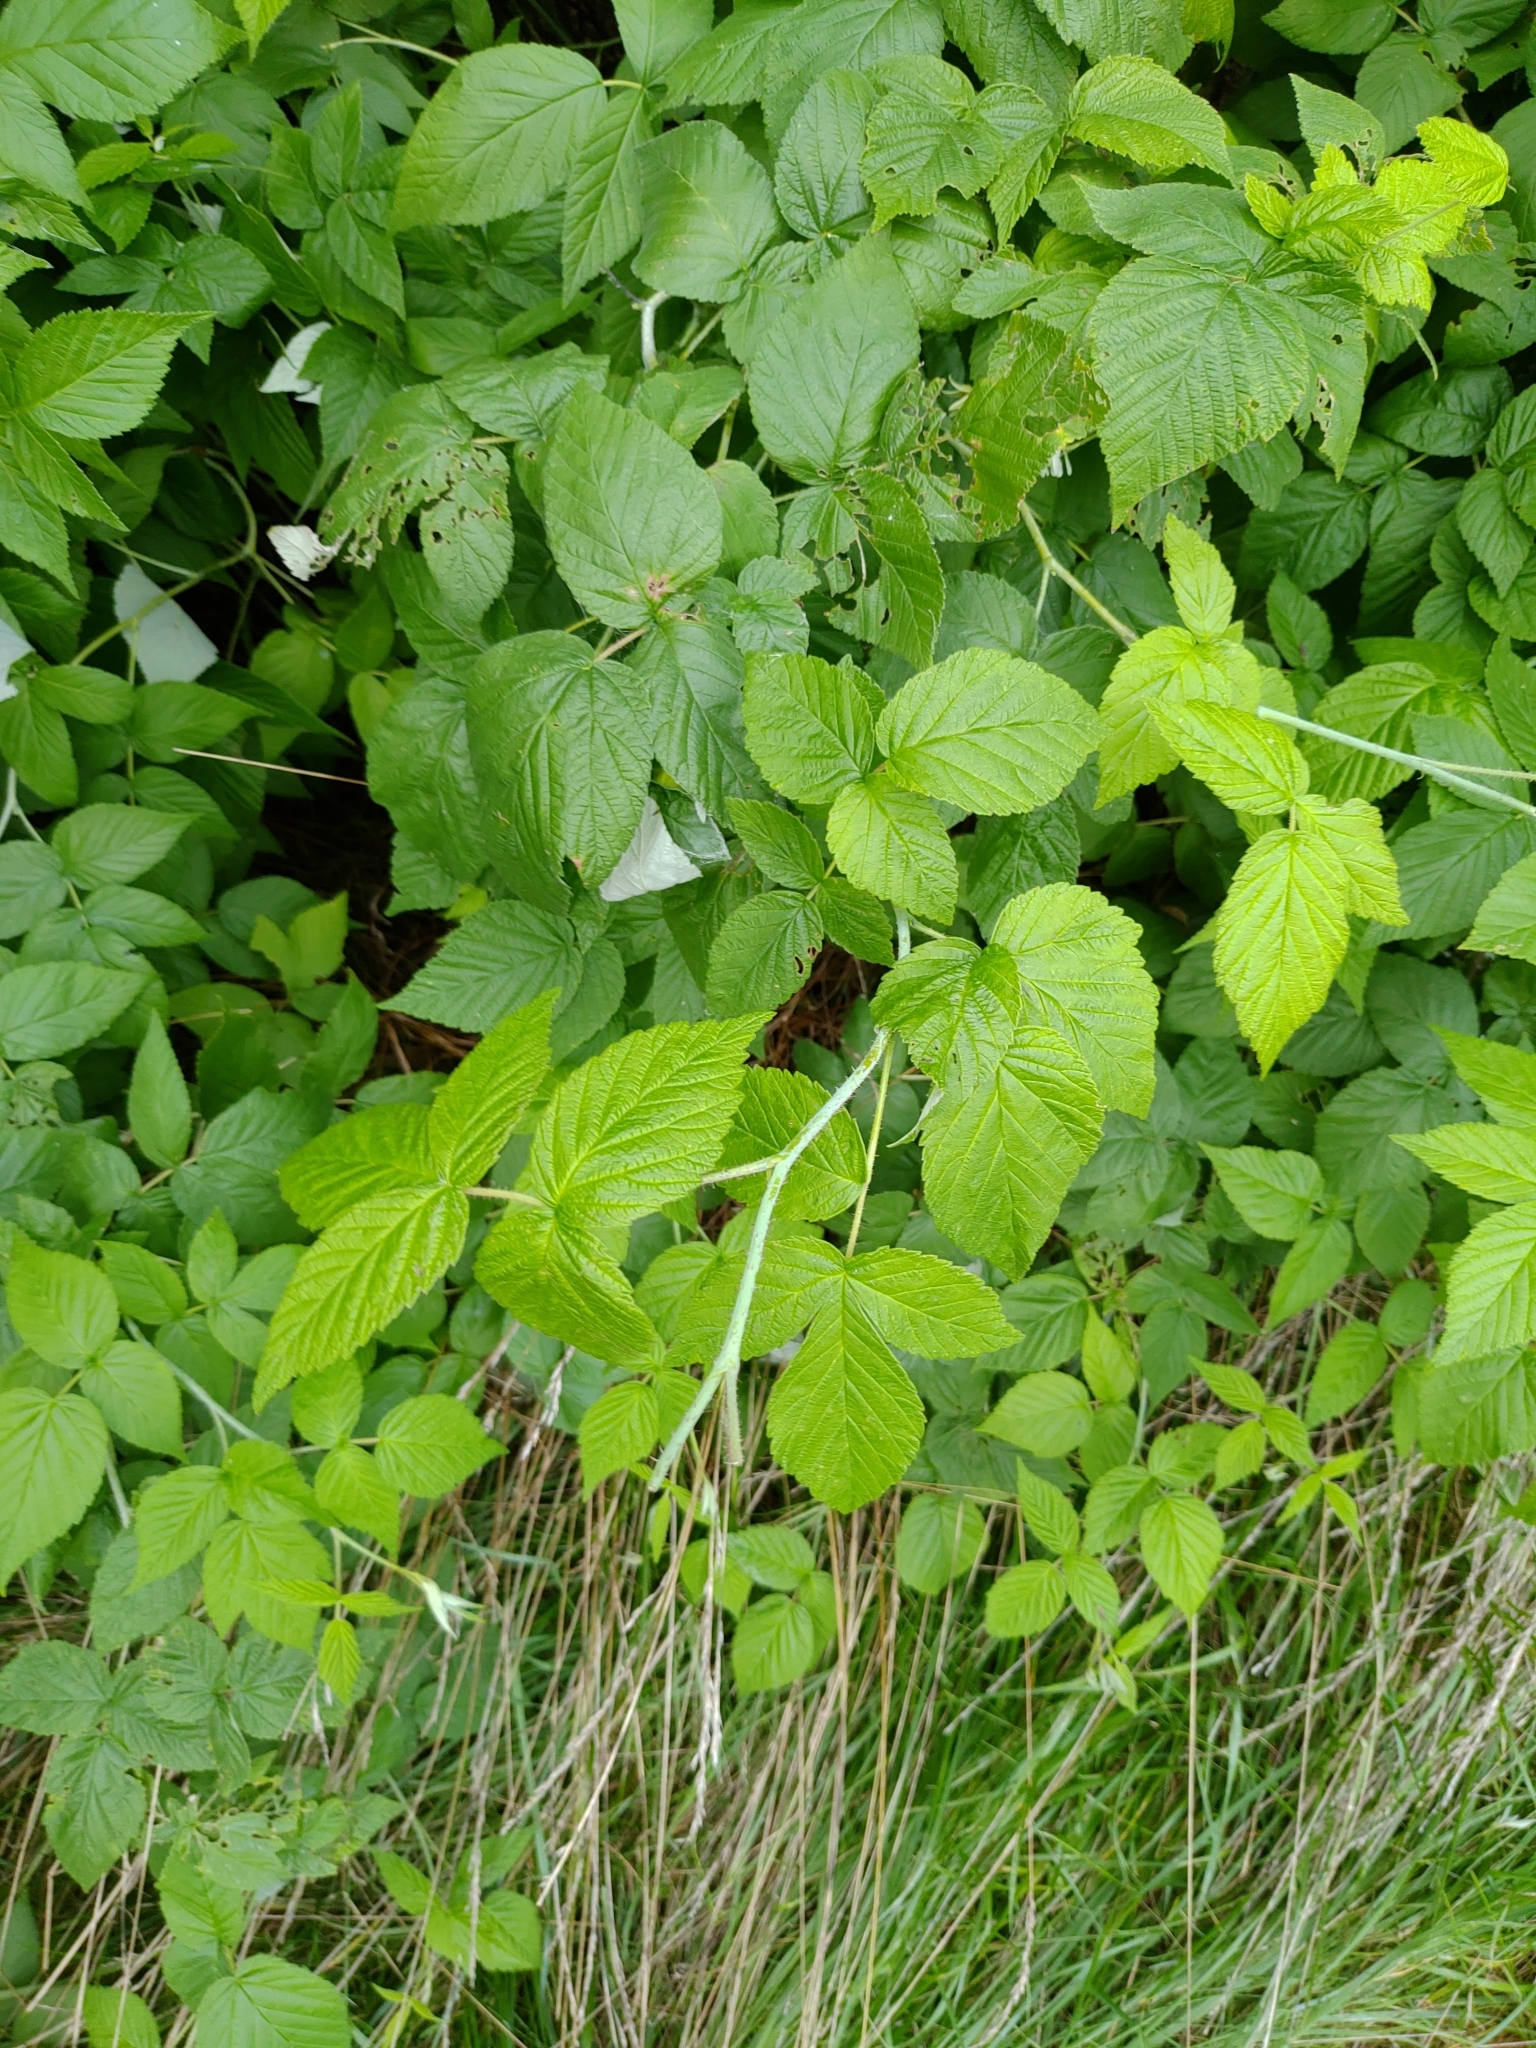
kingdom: Plantae
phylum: Tracheophyta
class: Magnoliopsida
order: Rosales
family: Rosaceae
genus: Rubus
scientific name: Rubus occidentalis
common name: Black raspberry
